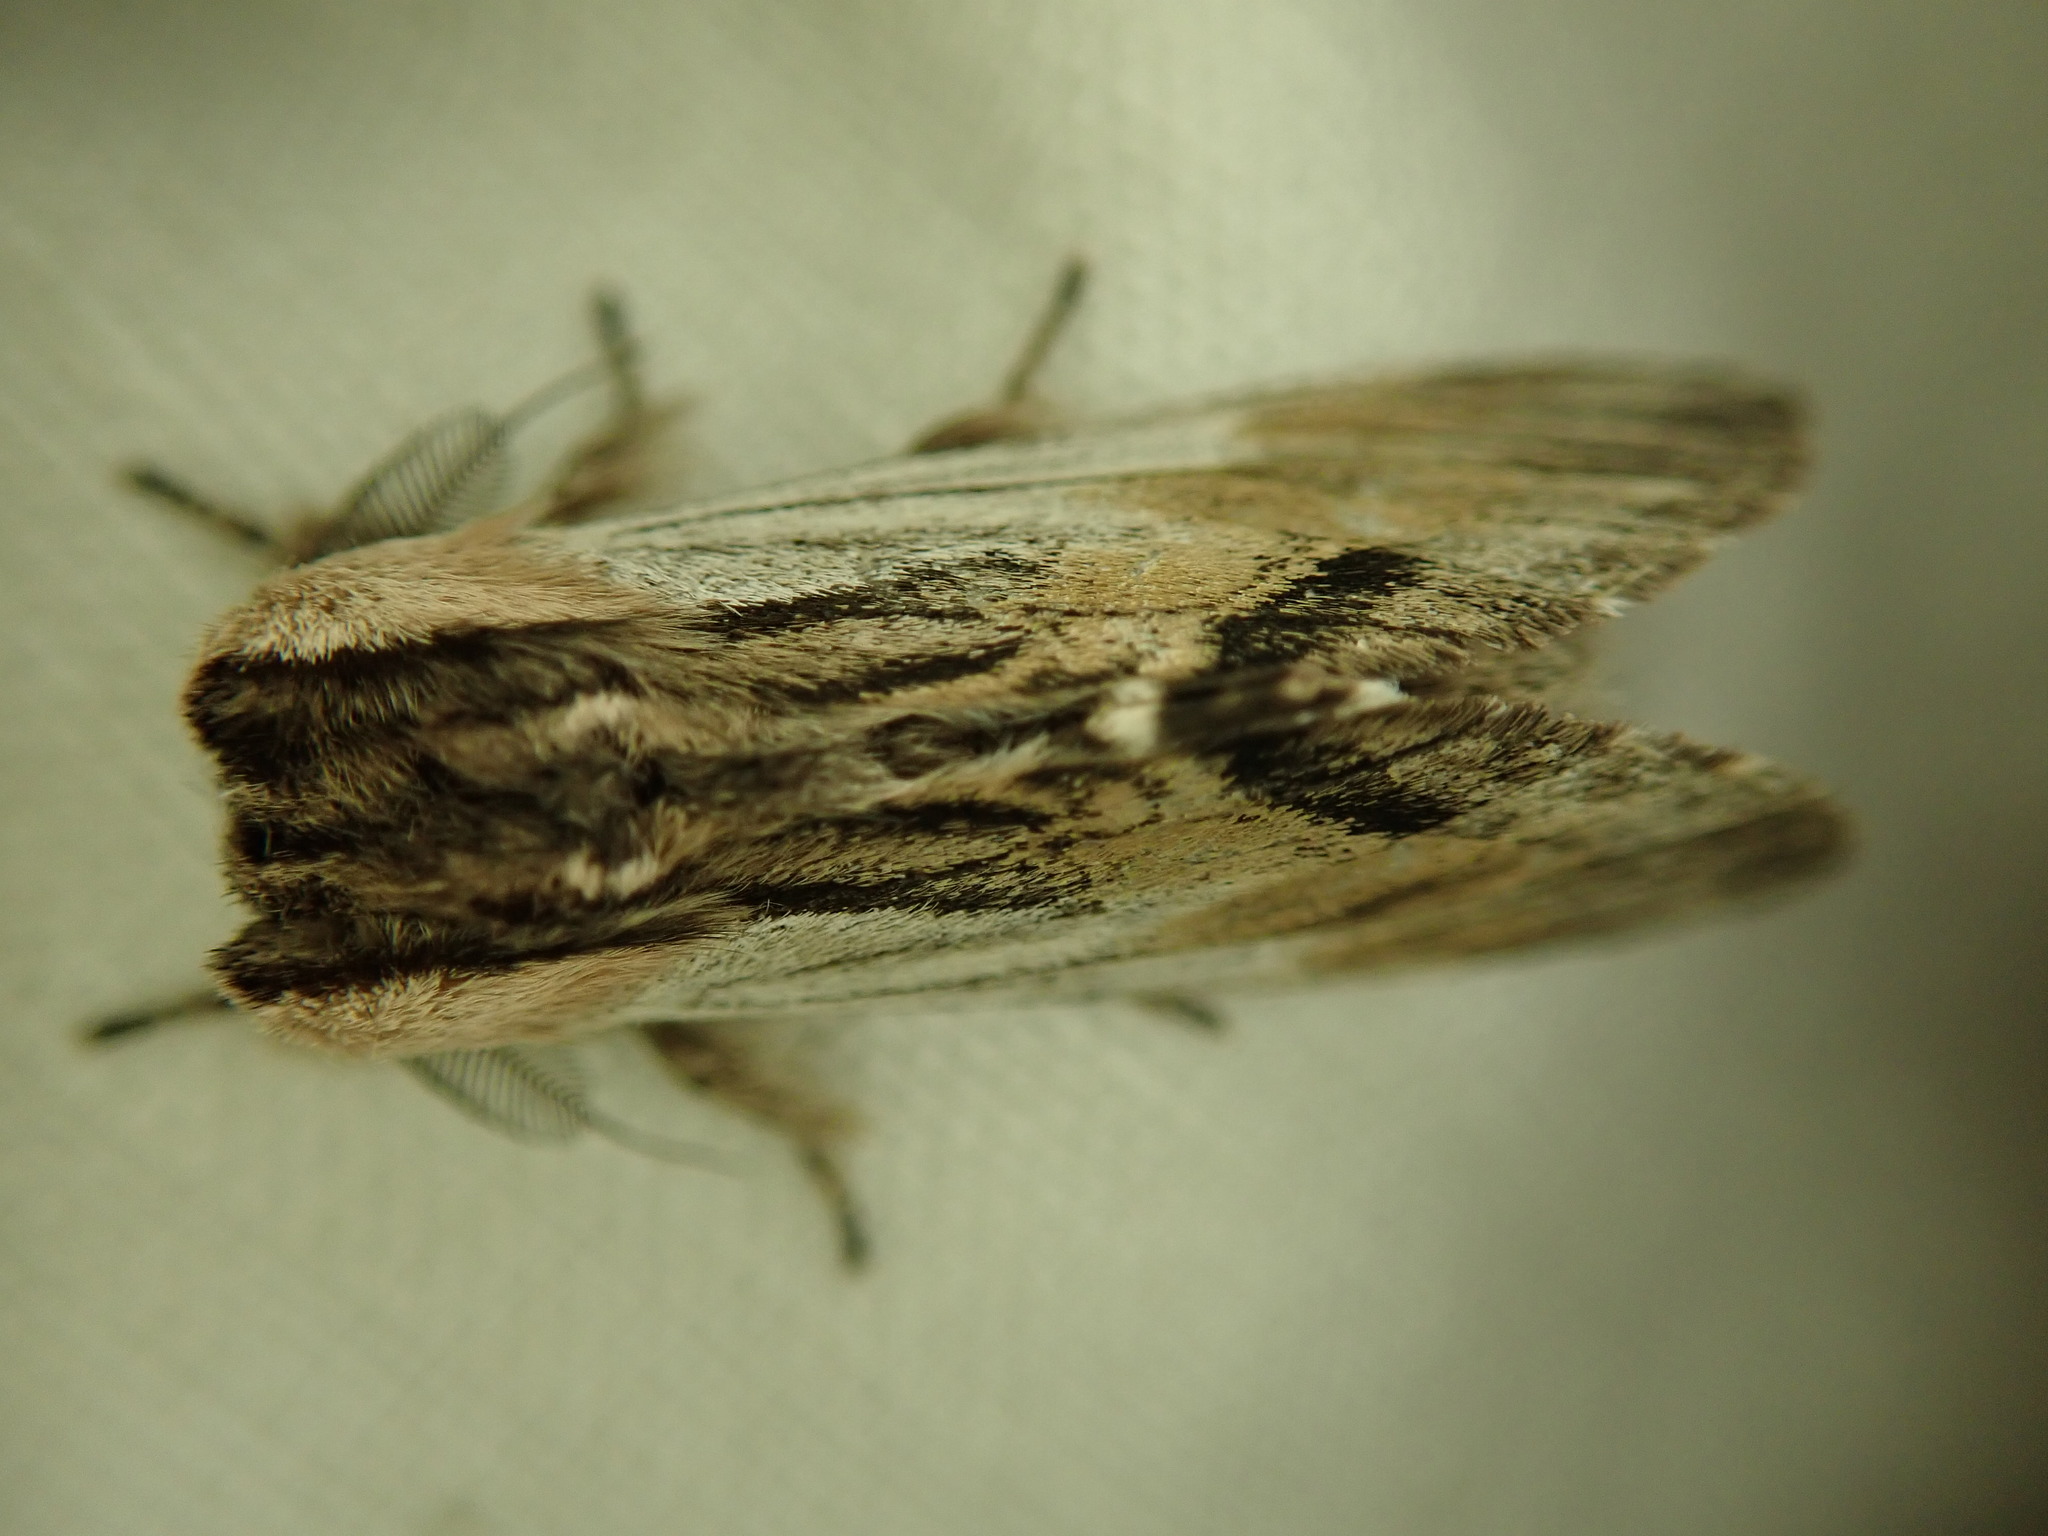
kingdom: Animalia
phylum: Arthropoda
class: Insecta
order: Lepidoptera
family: Notodontidae
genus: Harpyia
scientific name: Harpyia milhauseri
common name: Tawny prominent
